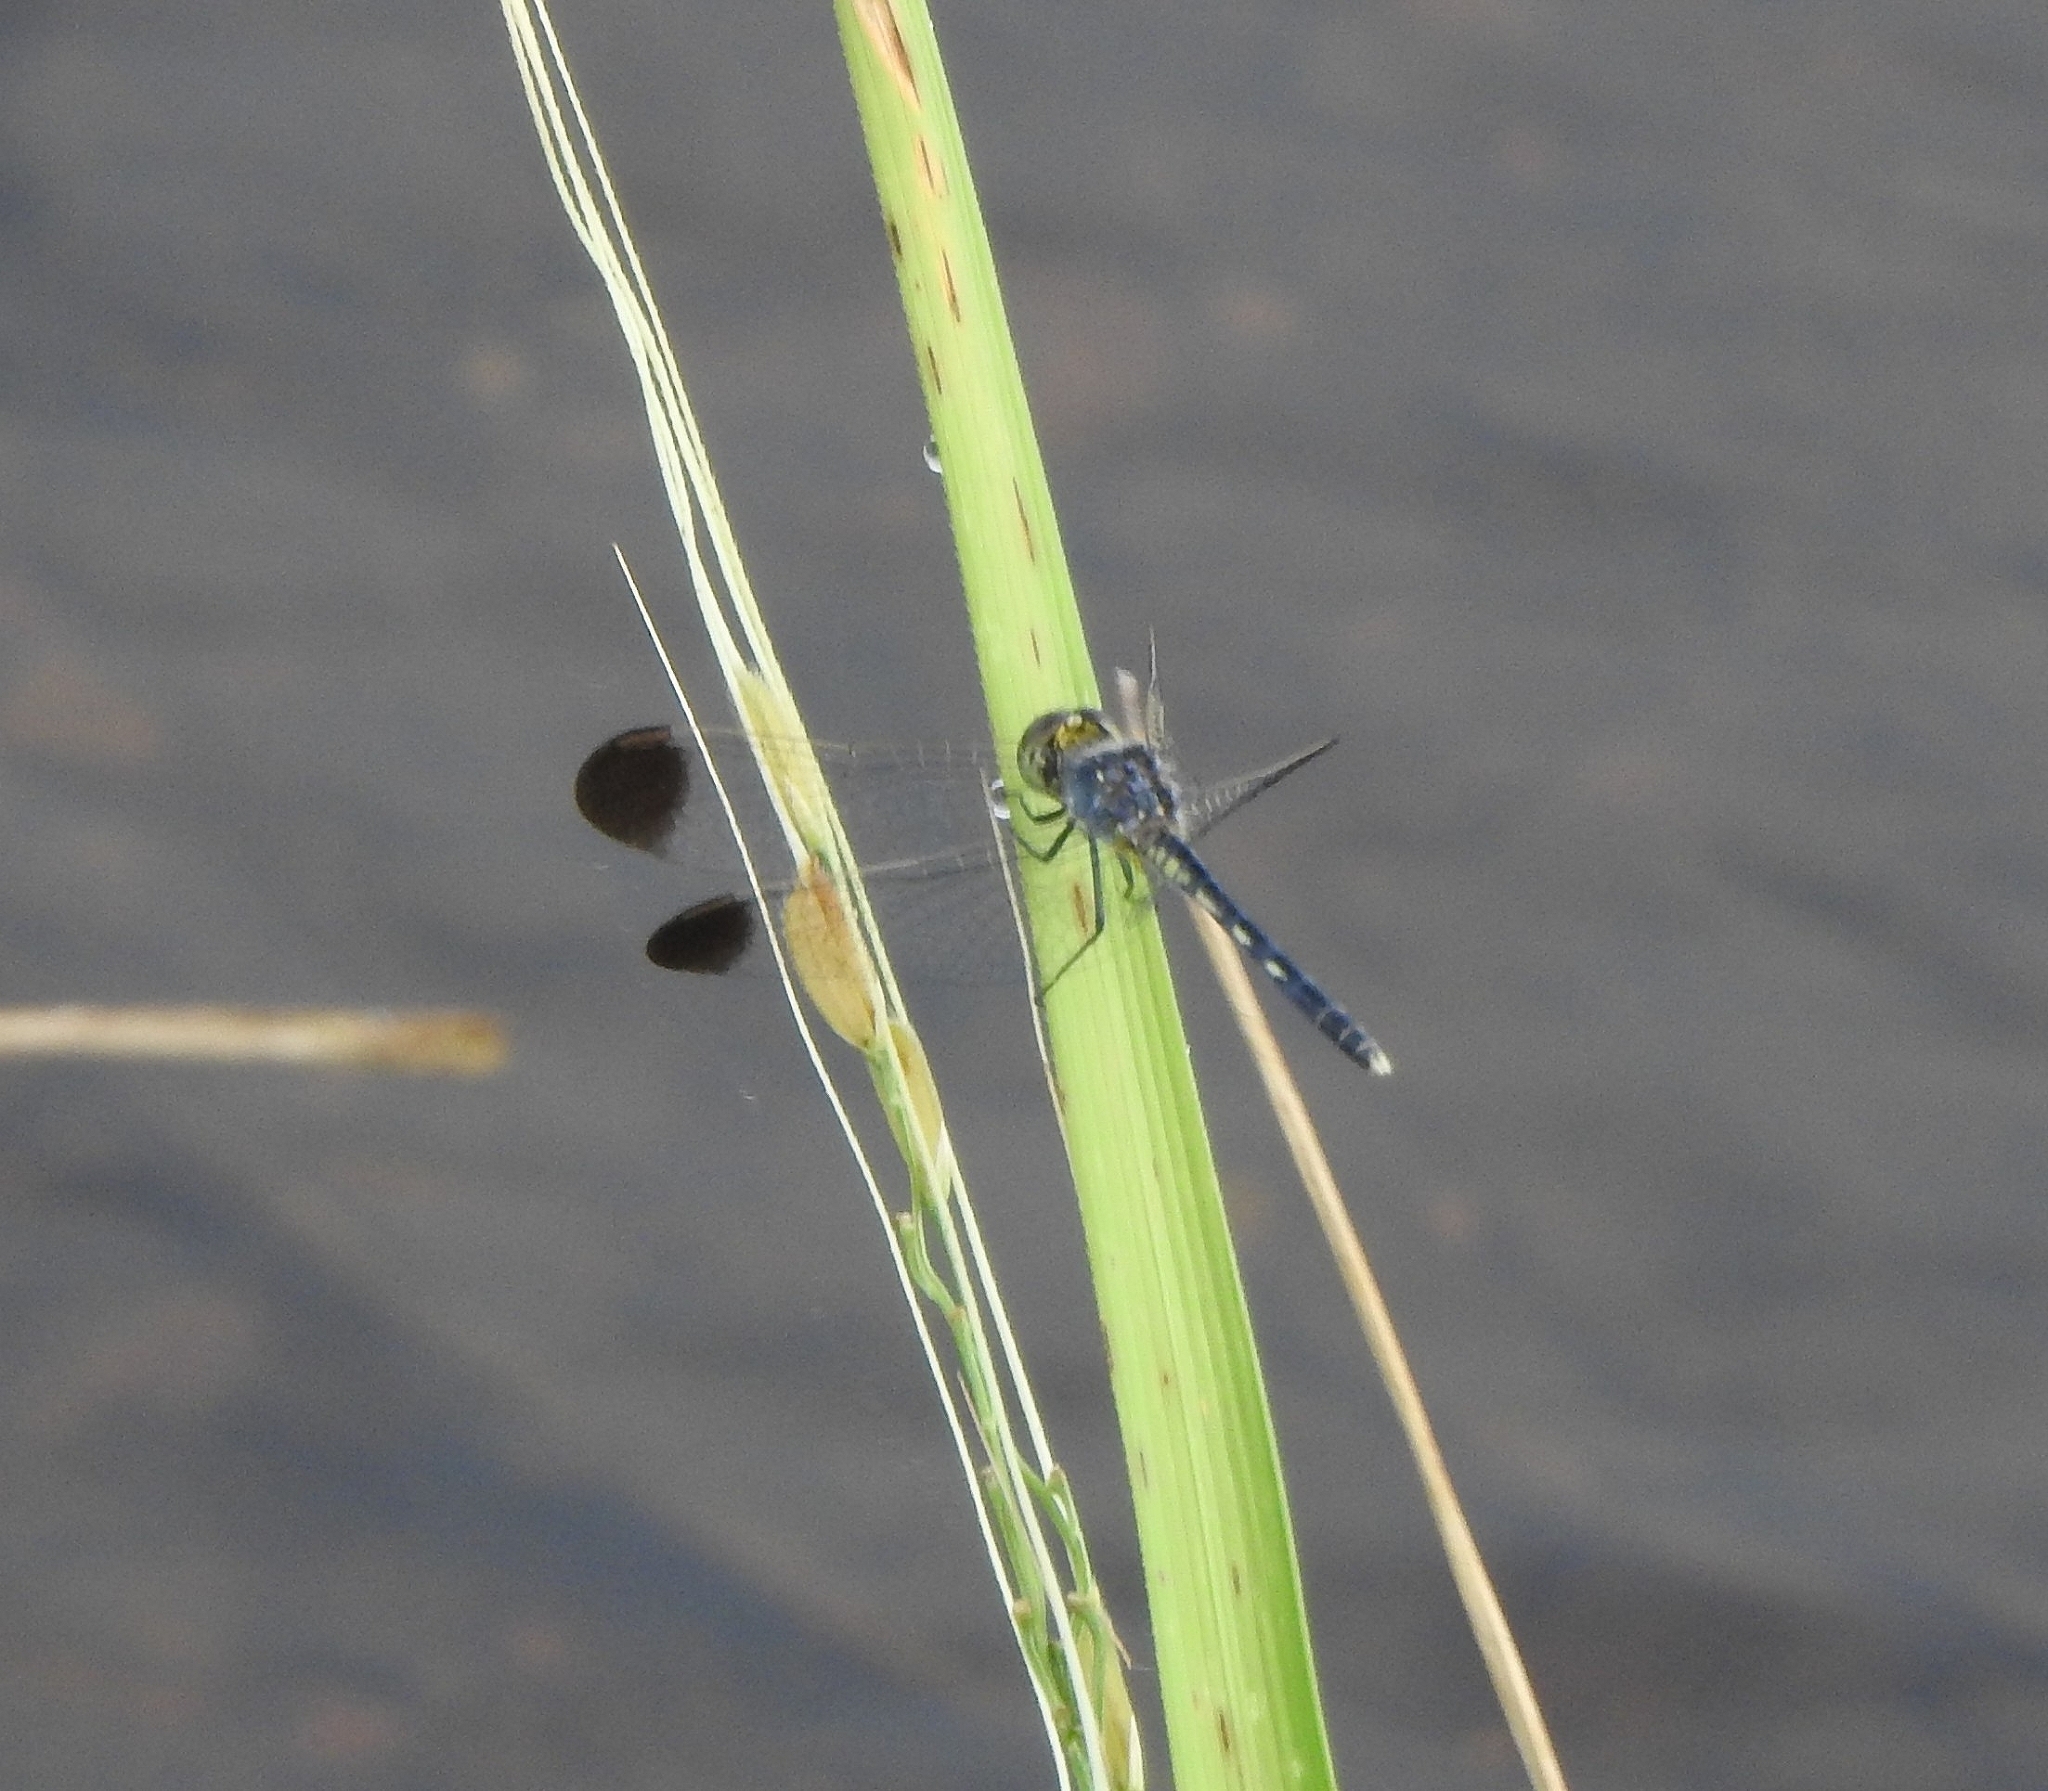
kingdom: Animalia
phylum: Arthropoda
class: Insecta
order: Odonata
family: Libellulidae
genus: Diplacodes
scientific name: Diplacodes nebulosa
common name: Black-tipped percher
